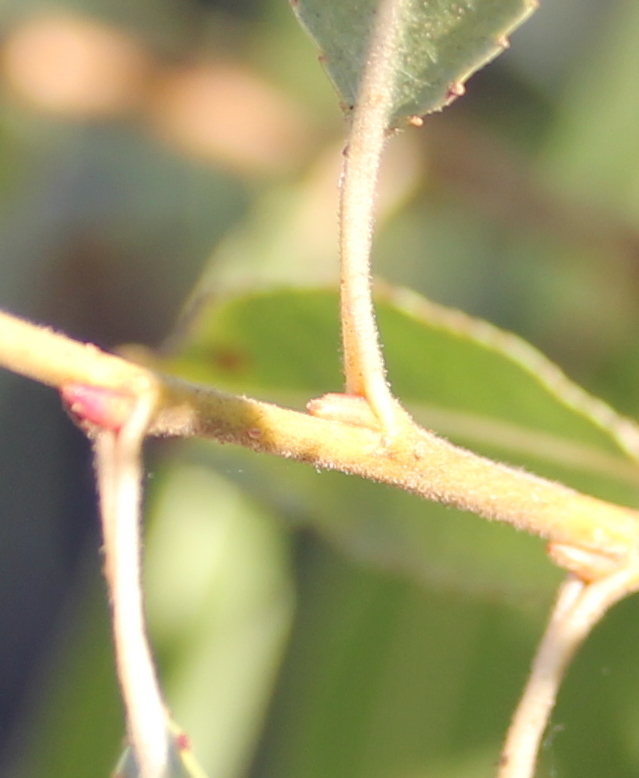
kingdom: Plantae
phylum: Tracheophyta
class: Magnoliopsida
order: Malpighiales
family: Salicaceae
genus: Salix
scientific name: Salix gooddingii
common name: Goodding's willow
